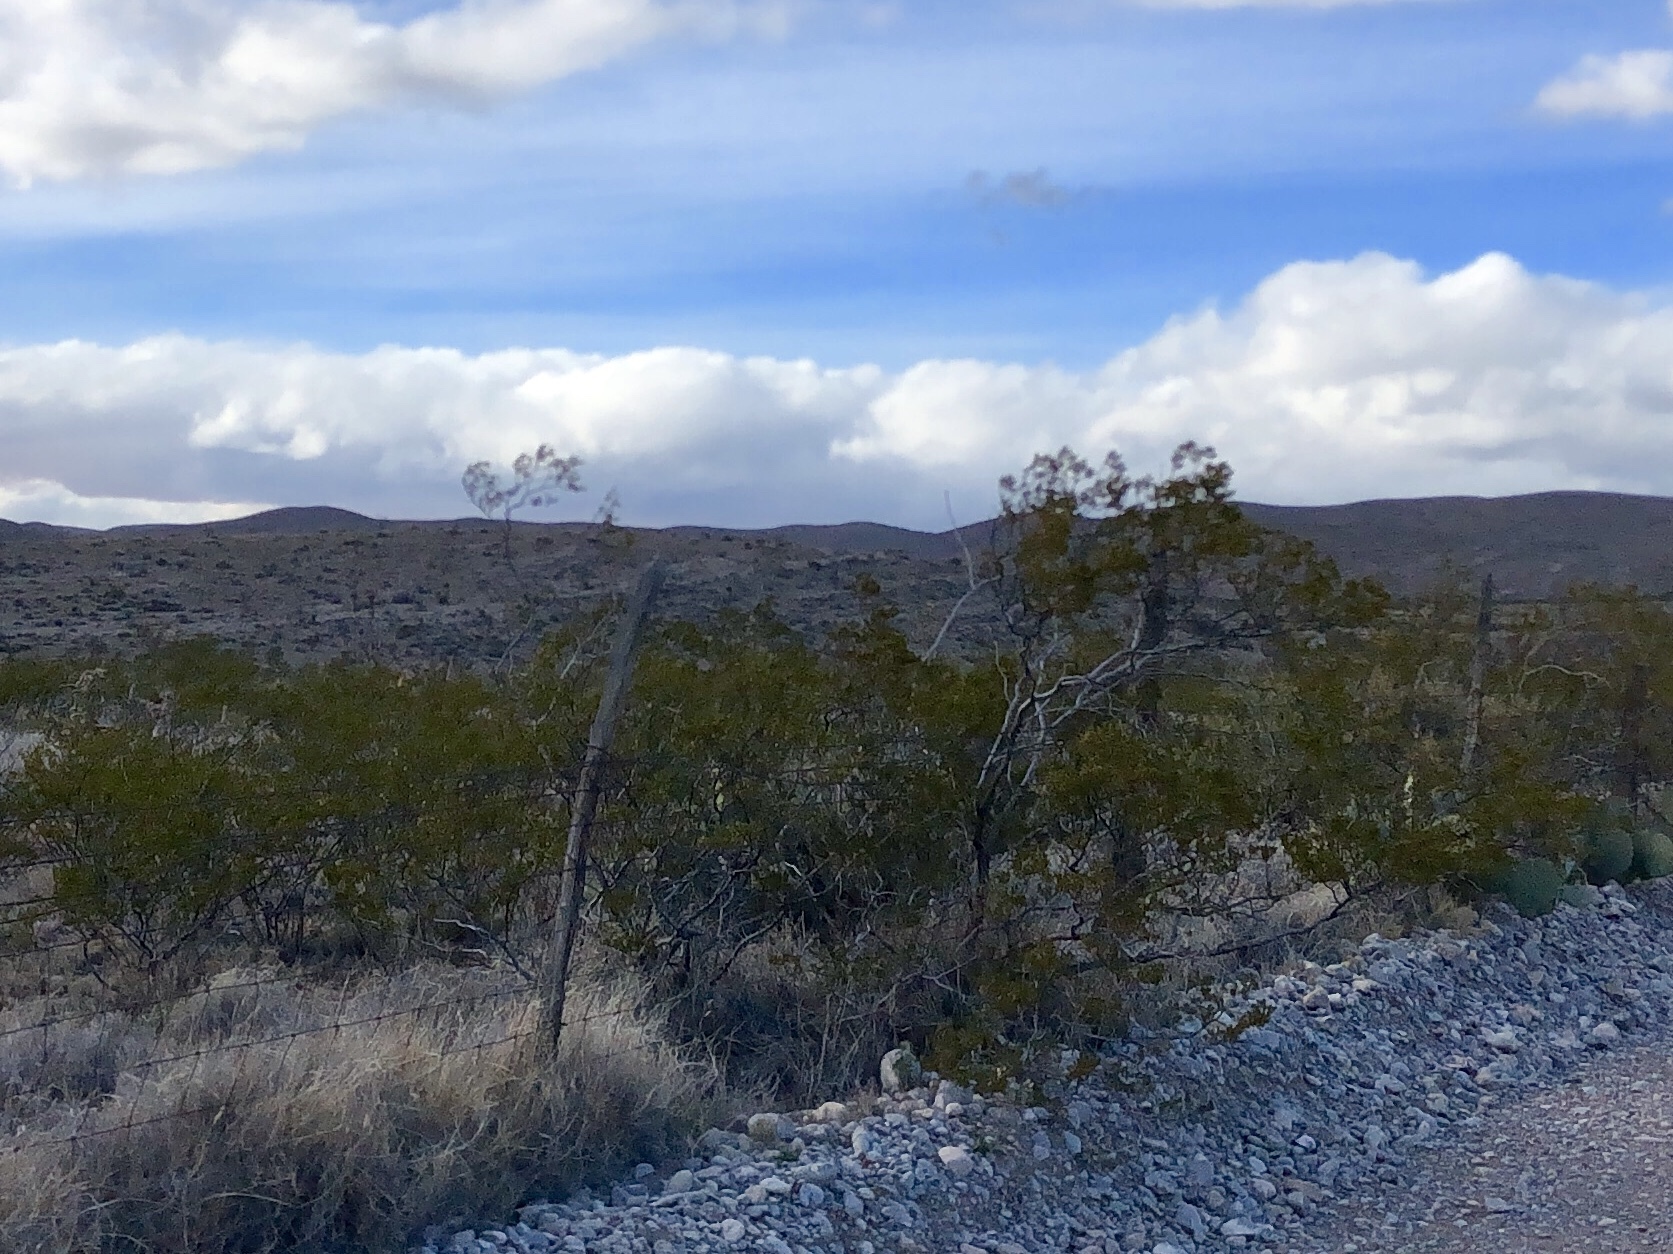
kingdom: Plantae
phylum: Tracheophyta
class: Magnoliopsida
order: Zygophyllales
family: Zygophyllaceae
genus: Larrea
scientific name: Larrea tridentata
